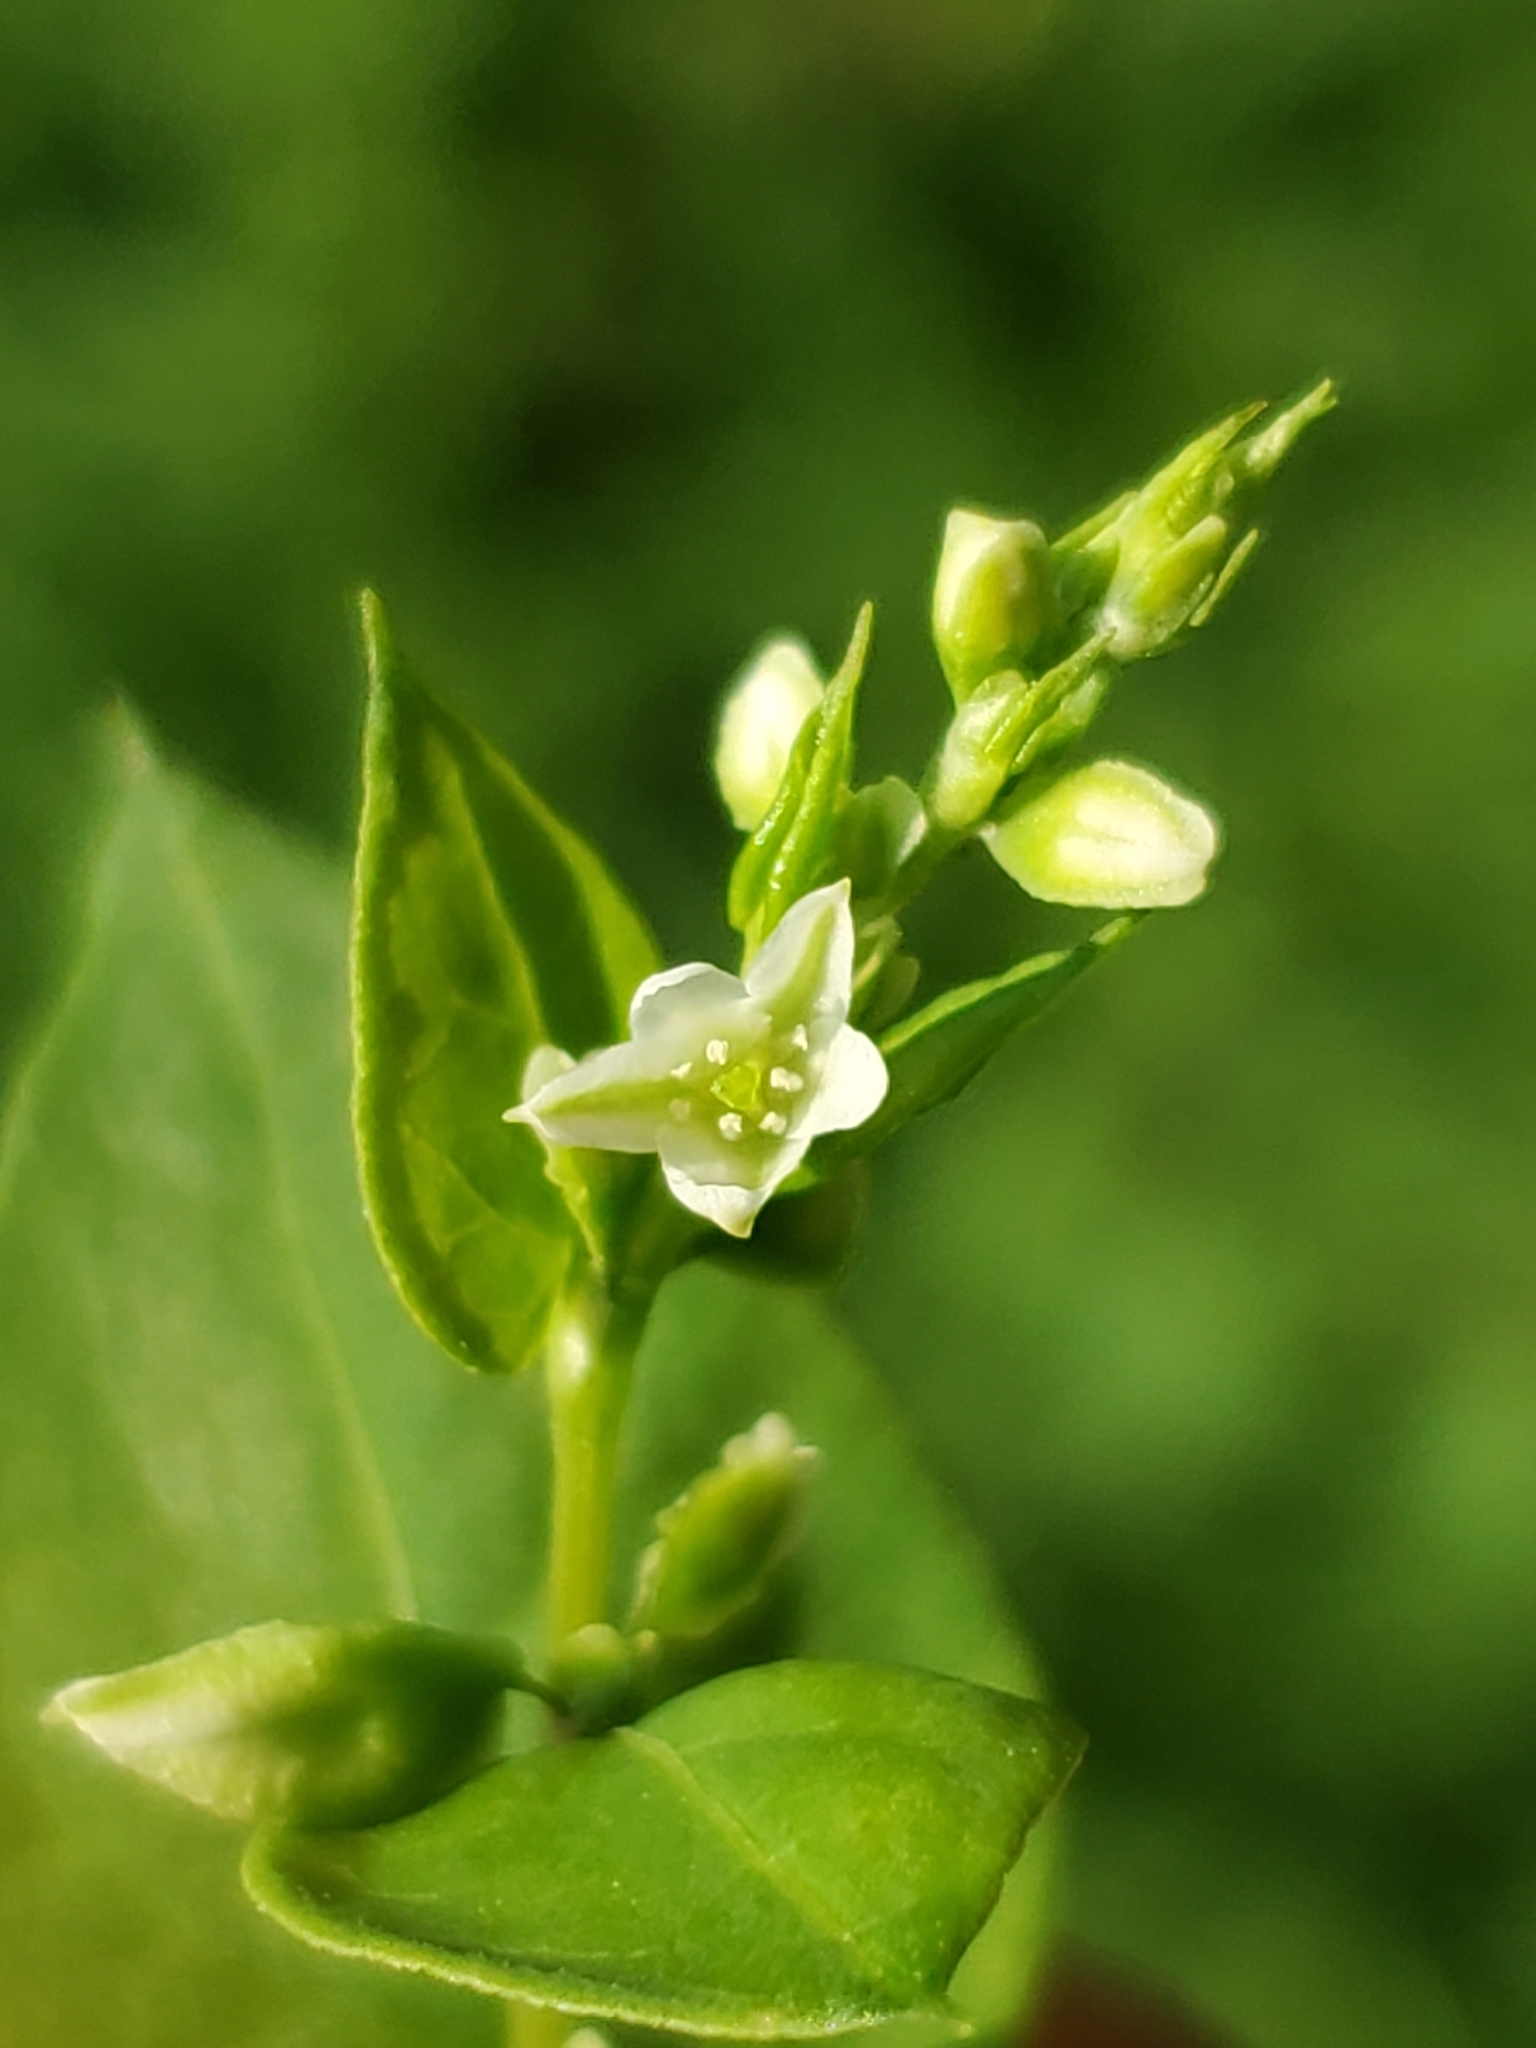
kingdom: Plantae
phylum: Tracheophyta
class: Magnoliopsida
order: Caryophyllales
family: Polygonaceae
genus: Fallopia
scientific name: Fallopia scandens
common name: Climbing false buckwheat
